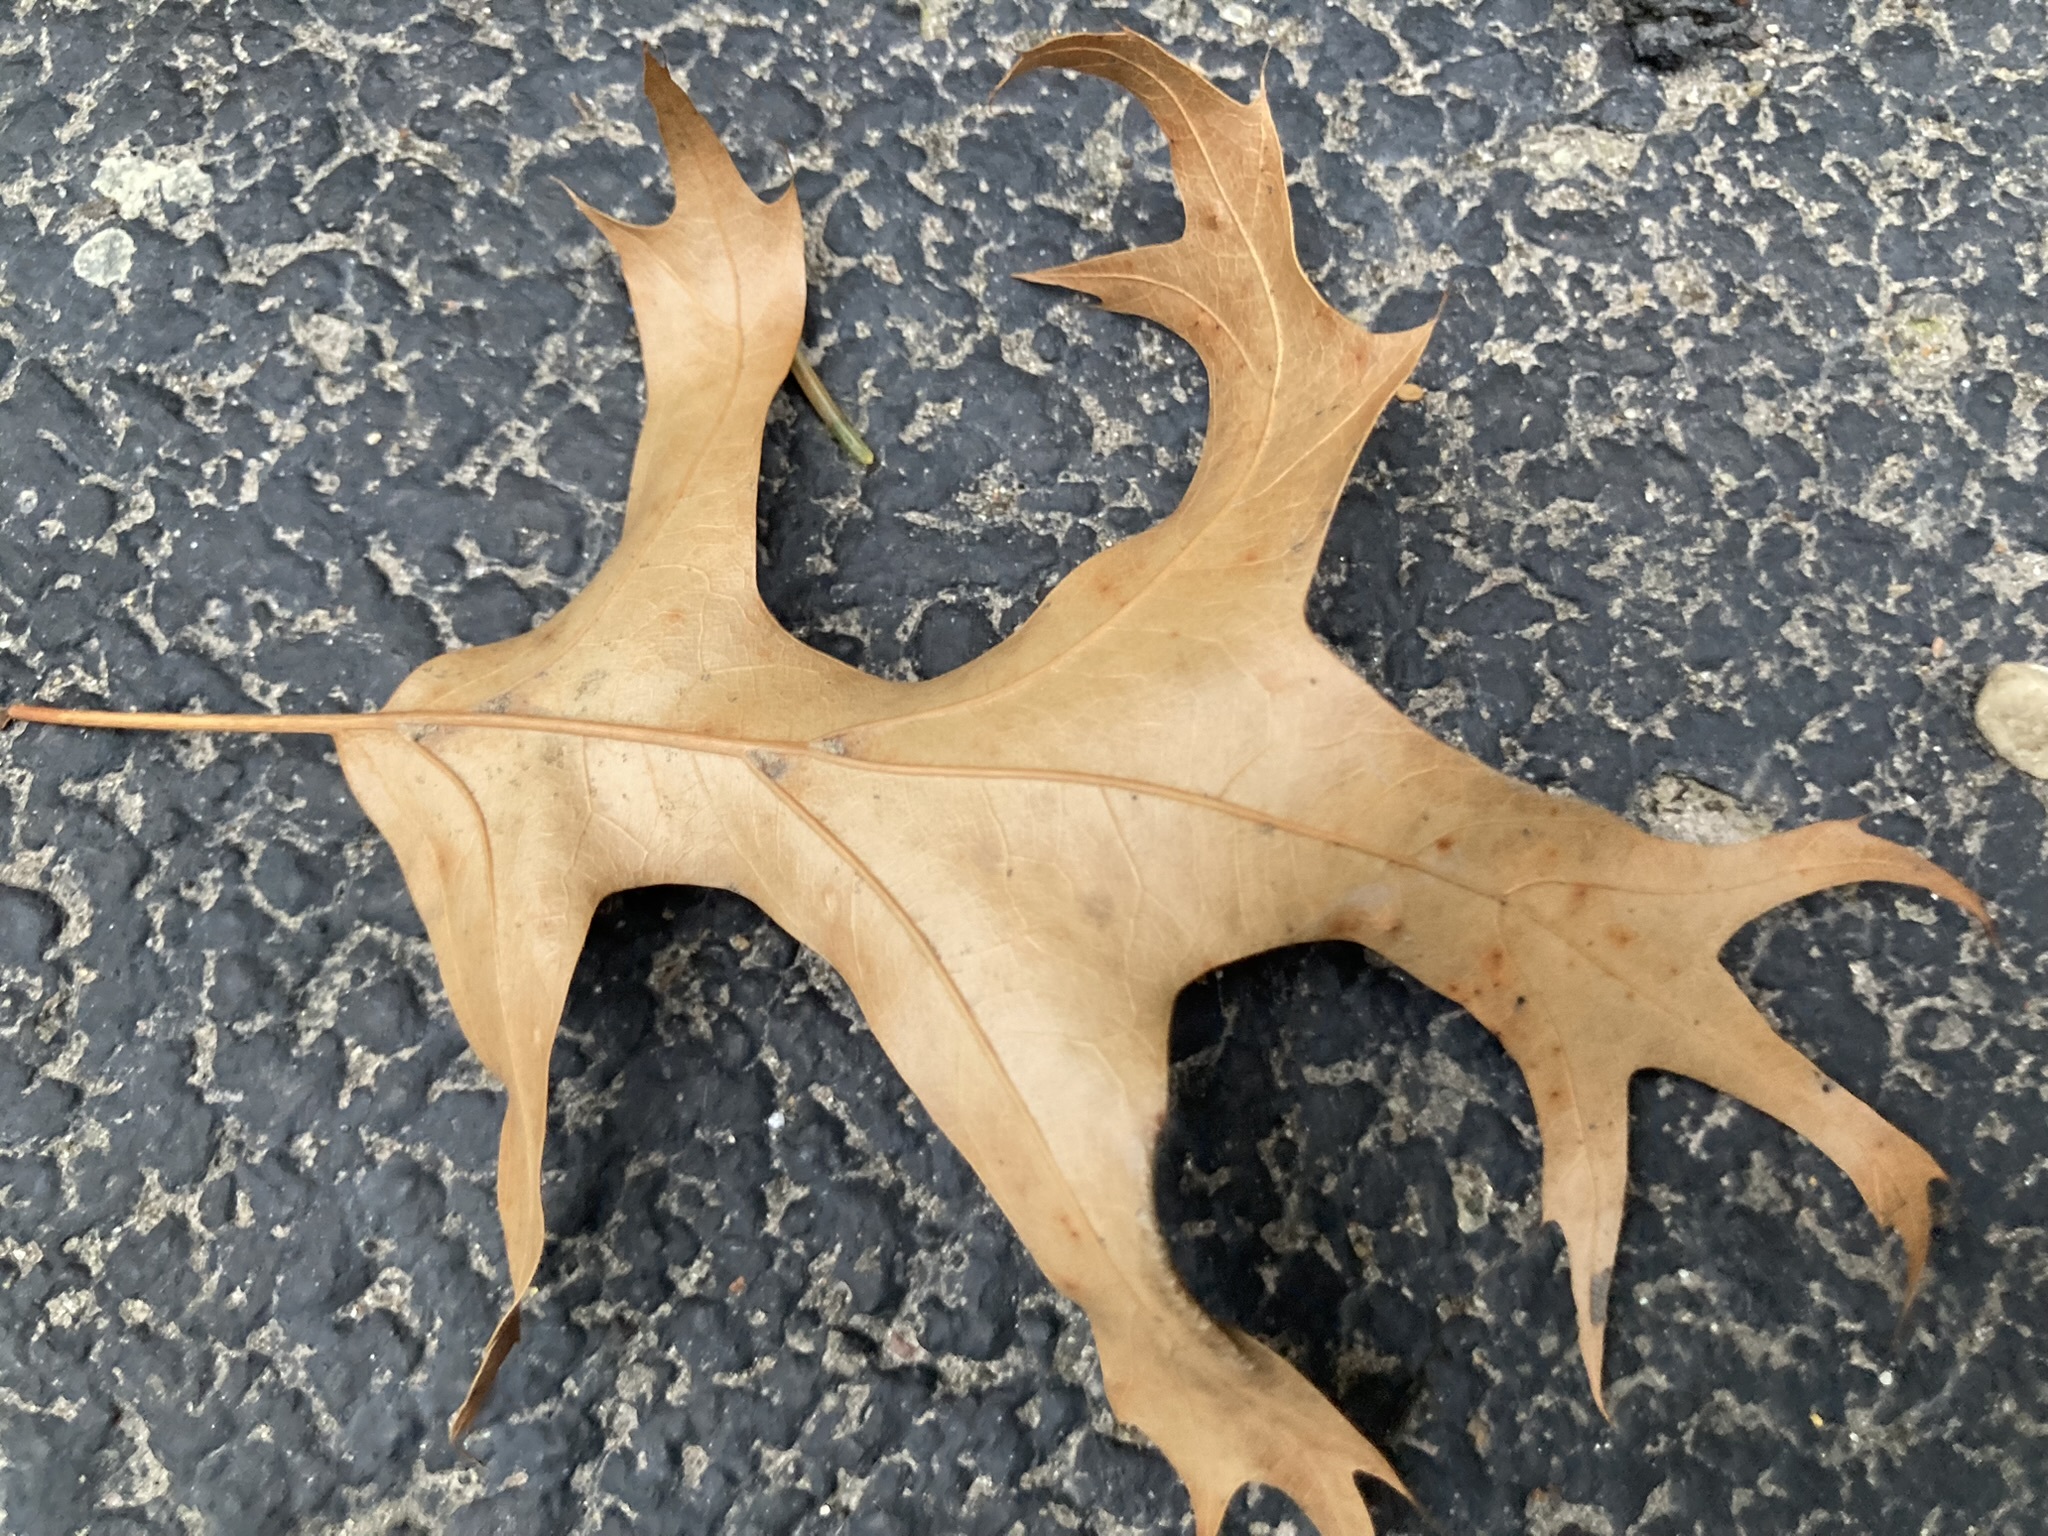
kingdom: Plantae
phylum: Tracheophyta
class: Magnoliopsida
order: Fagales
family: Fagaceae
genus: Quercus
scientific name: Quercus palustris
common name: Pin oak
